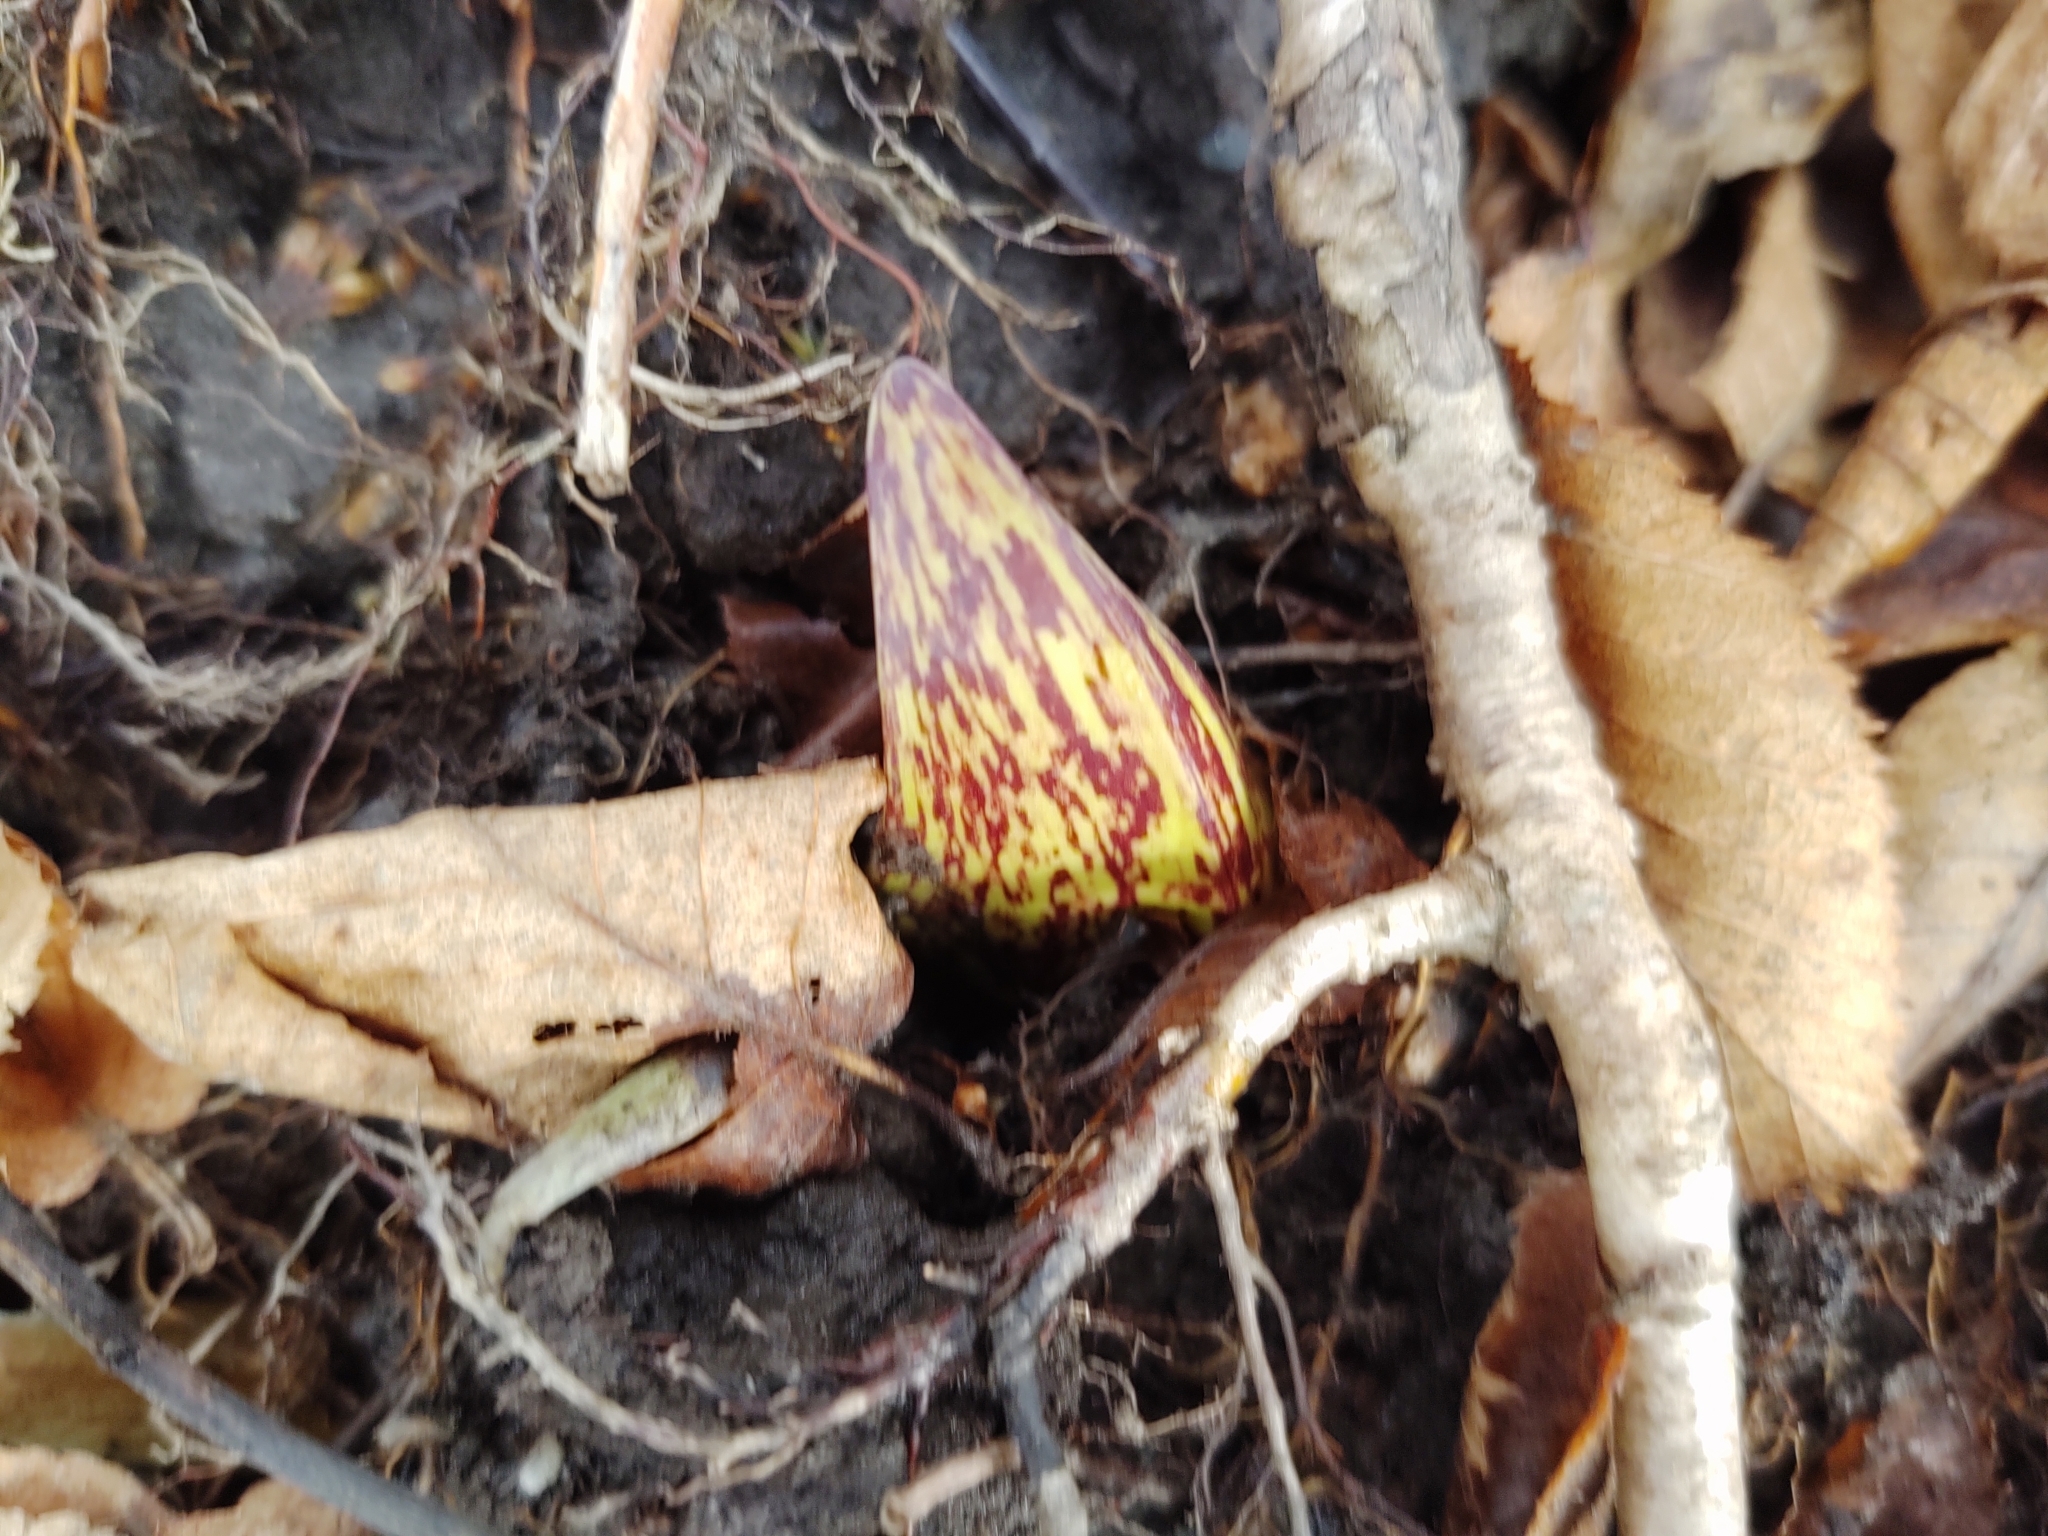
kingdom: Plantae
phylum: Tracheophyta
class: Liliopsida
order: Alismatales
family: Araceae
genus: Symplocarpus
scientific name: Symplocarpus foetidus
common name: Eastern skunk cabbage
